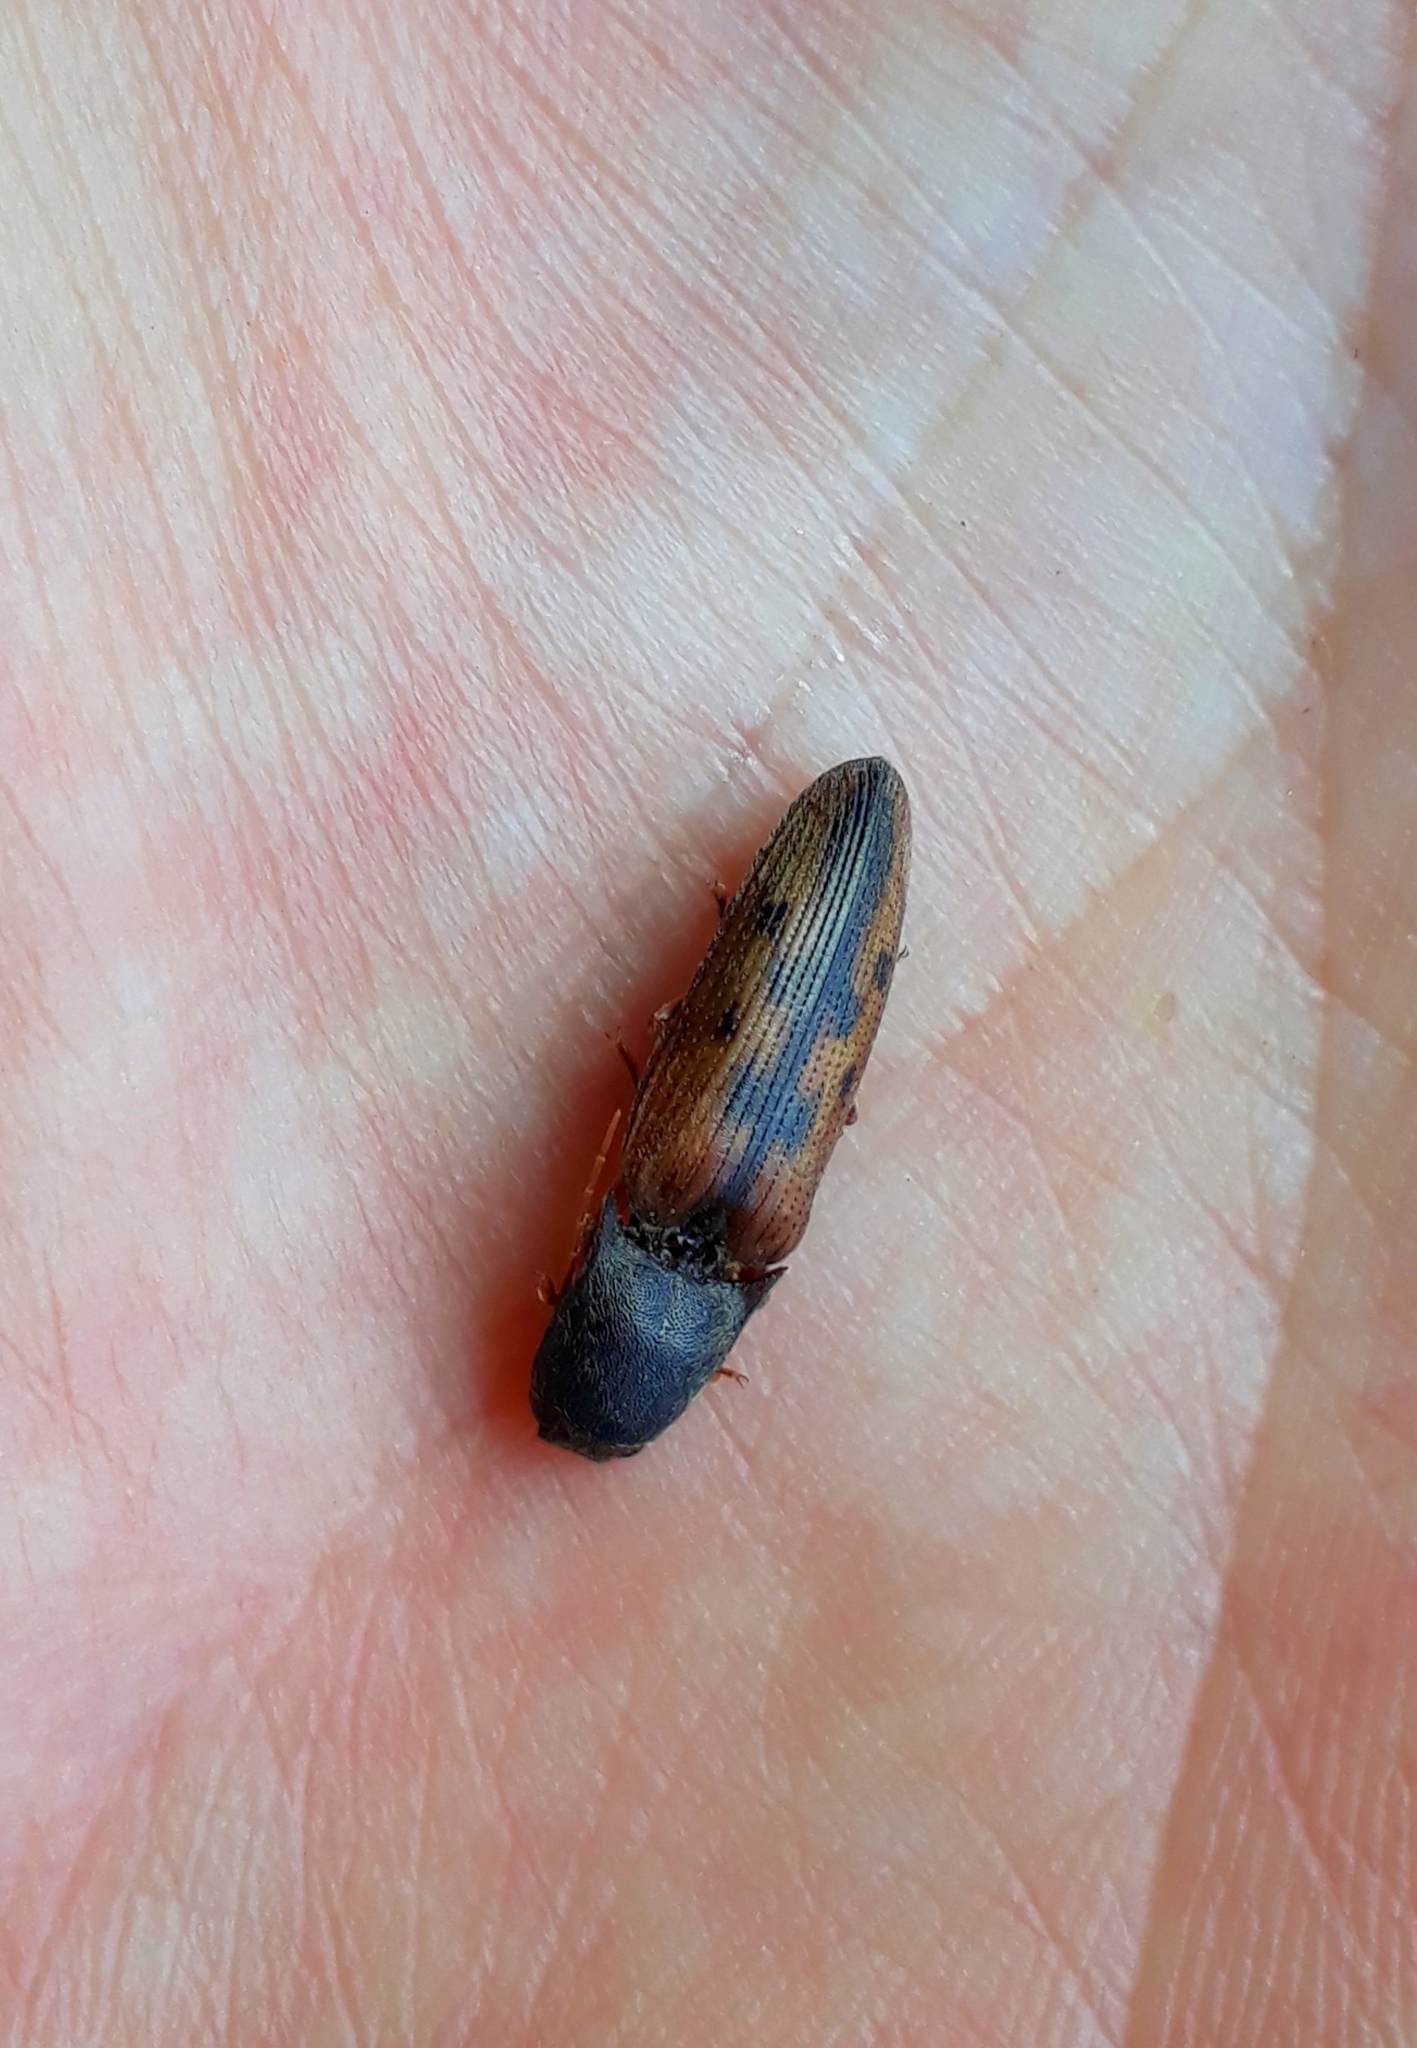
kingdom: Animalia
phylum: Arthropoda
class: Insecta
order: Coleoptera
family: Elateridae
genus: Monocrepidius
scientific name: Monocrepidius
